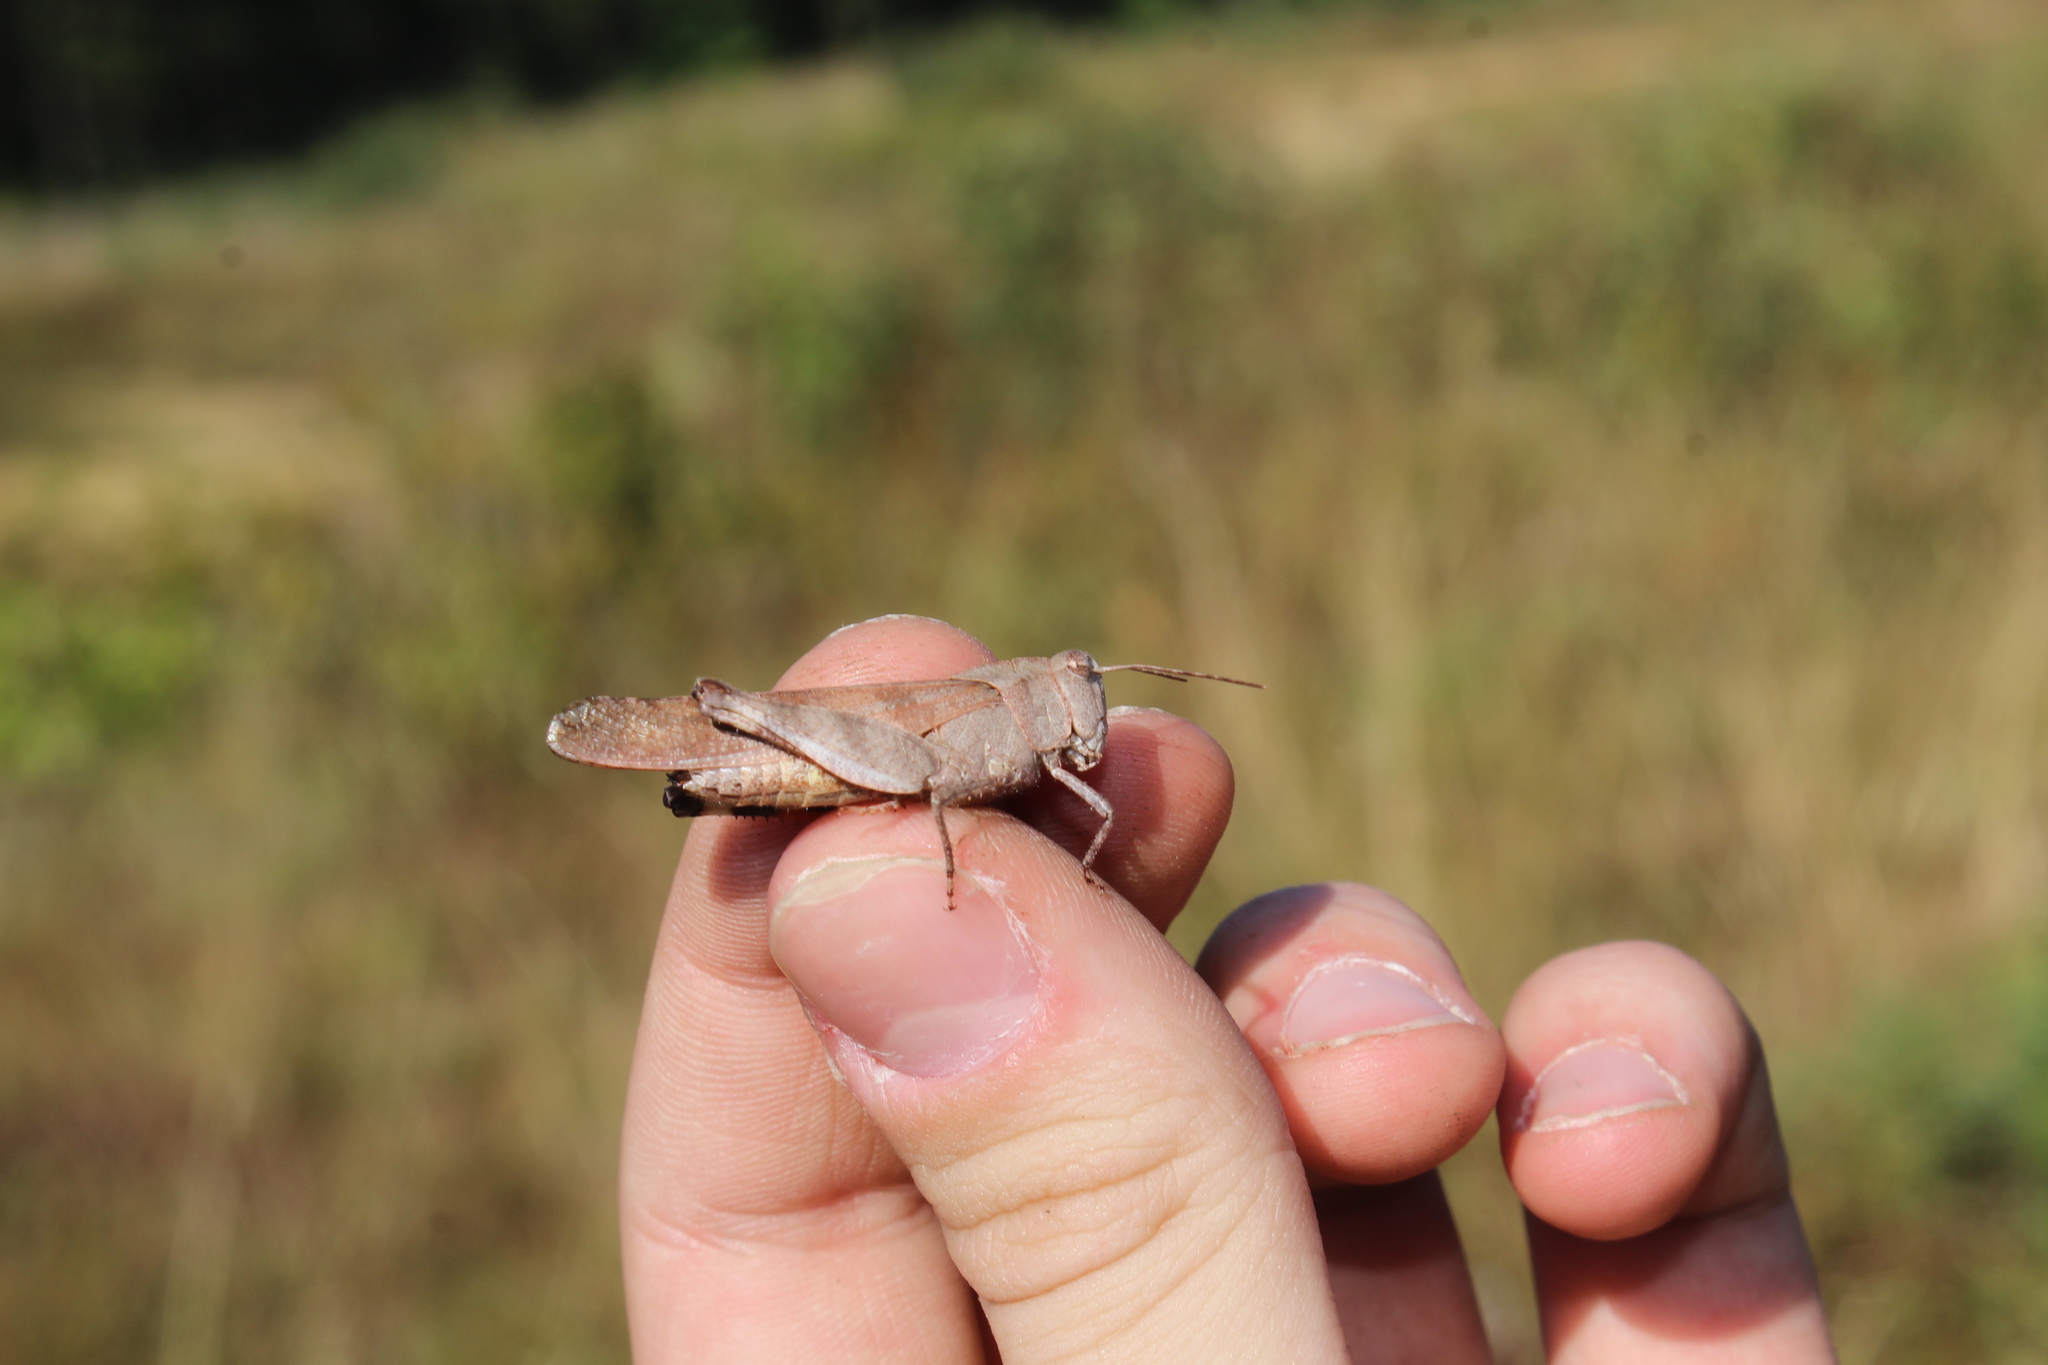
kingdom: Animalia
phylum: Arthropoda
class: Insecta
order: Orthoptera
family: Acrididae
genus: Spharagemon
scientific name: Spharagemon bolli
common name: Boll's grasshopper
